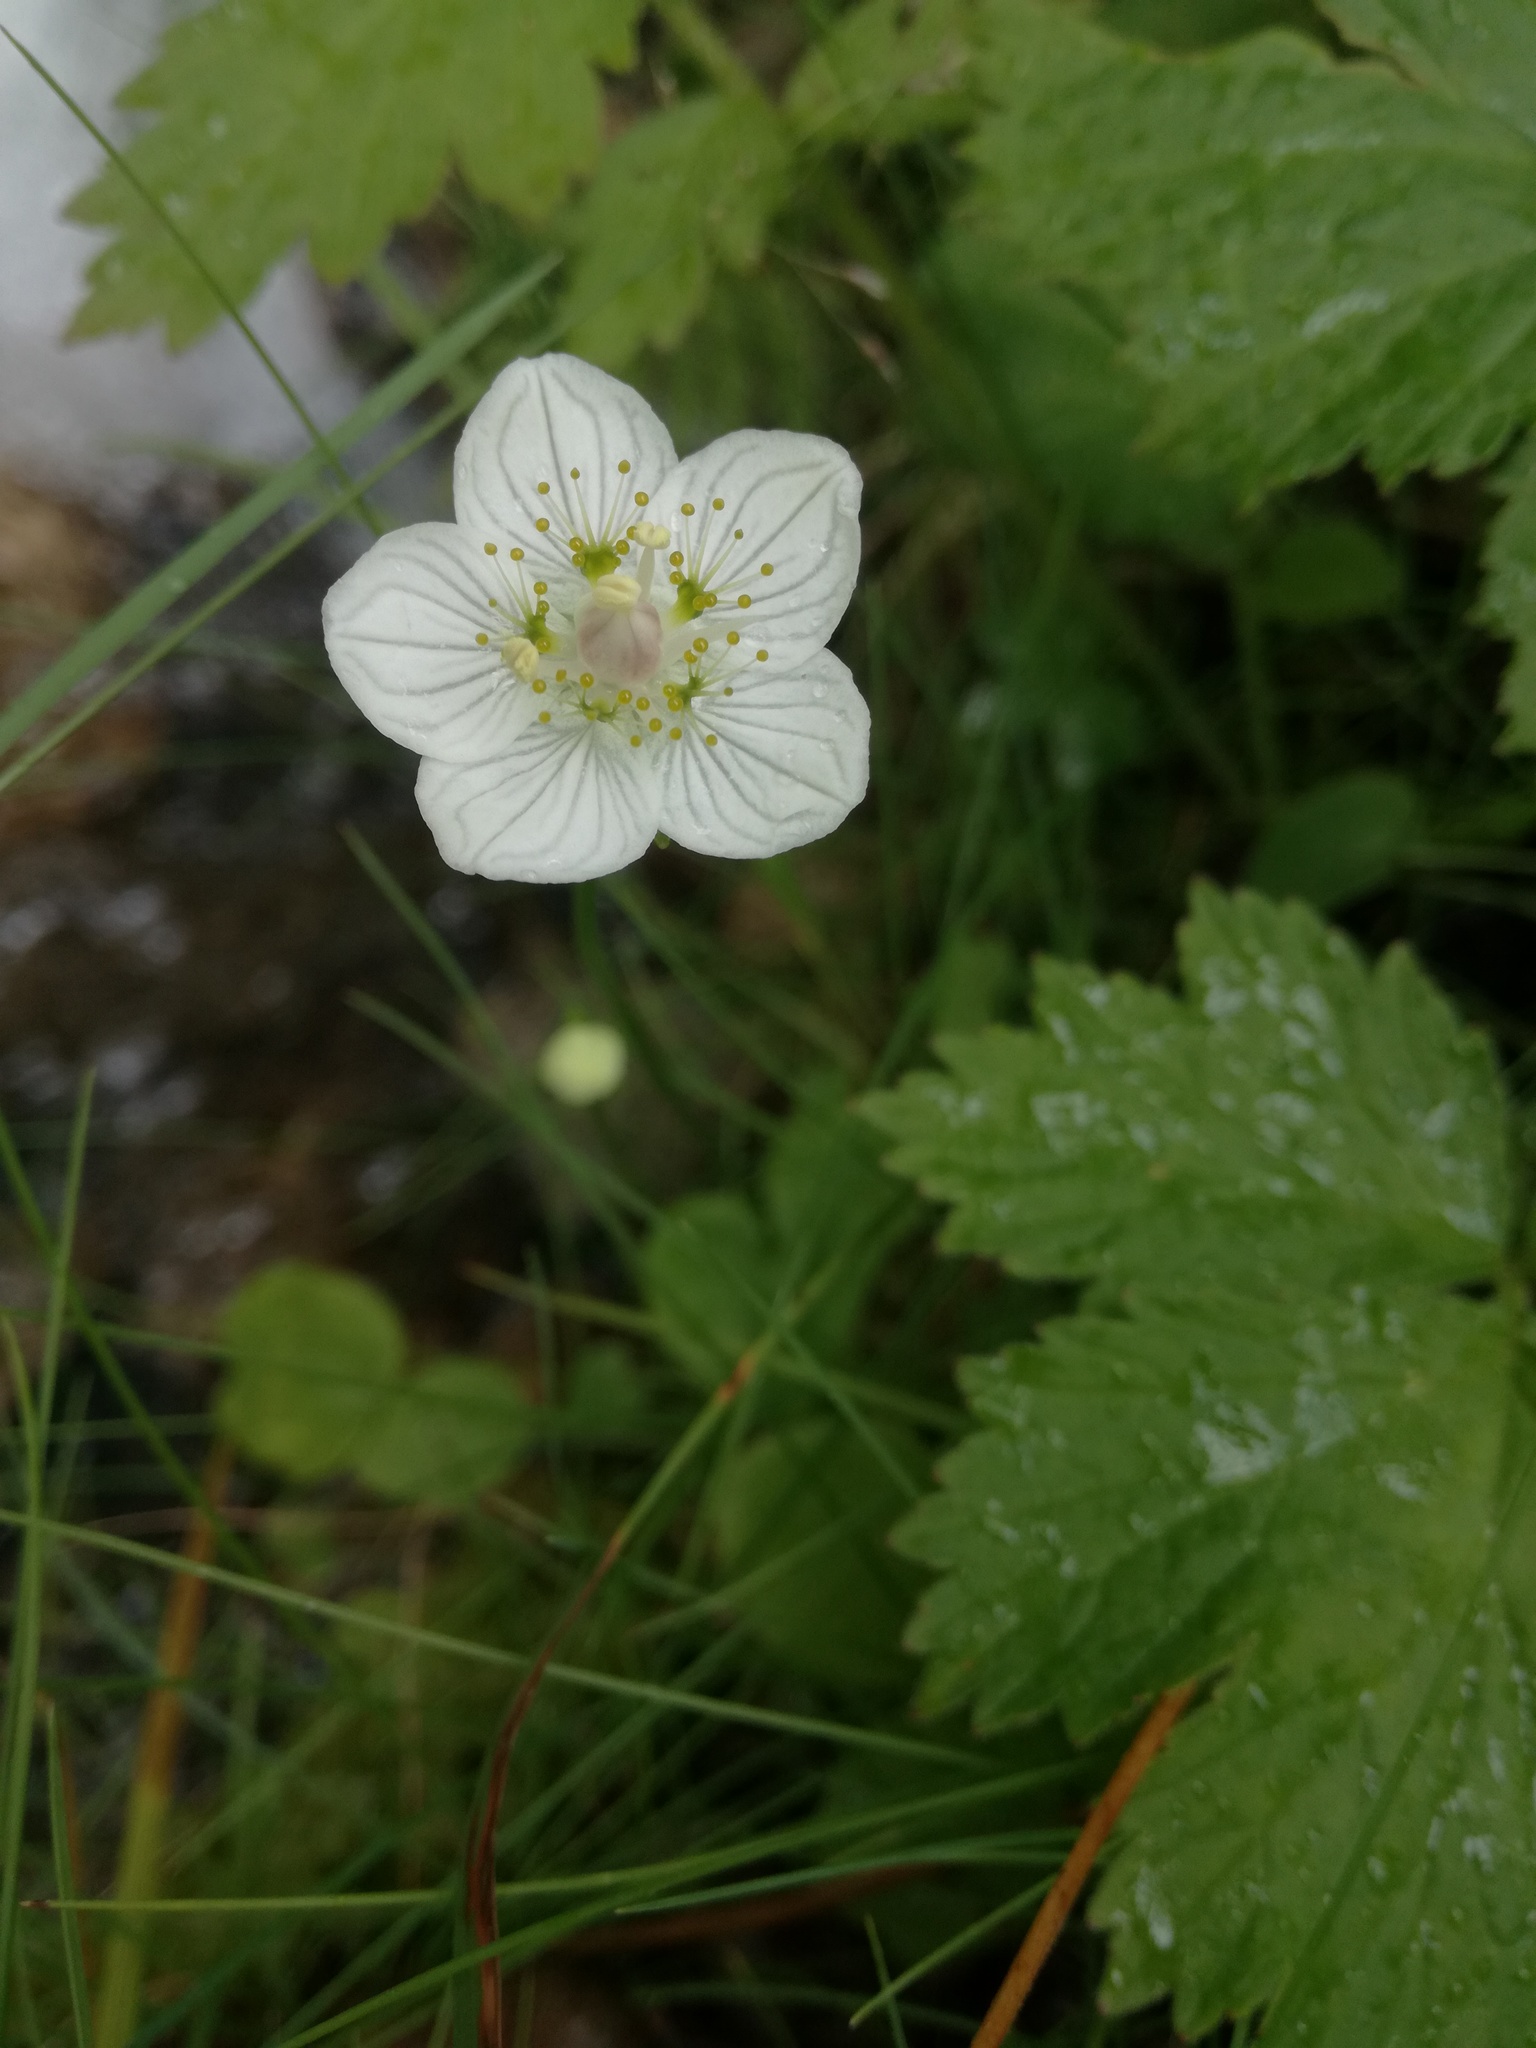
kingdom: Plantae
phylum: Tracheophyta
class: Magnoliopsida
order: Celastrales
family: Parnassiaceae
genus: Parnassia
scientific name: Parnassia palustris
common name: Grass-of-parnassus
